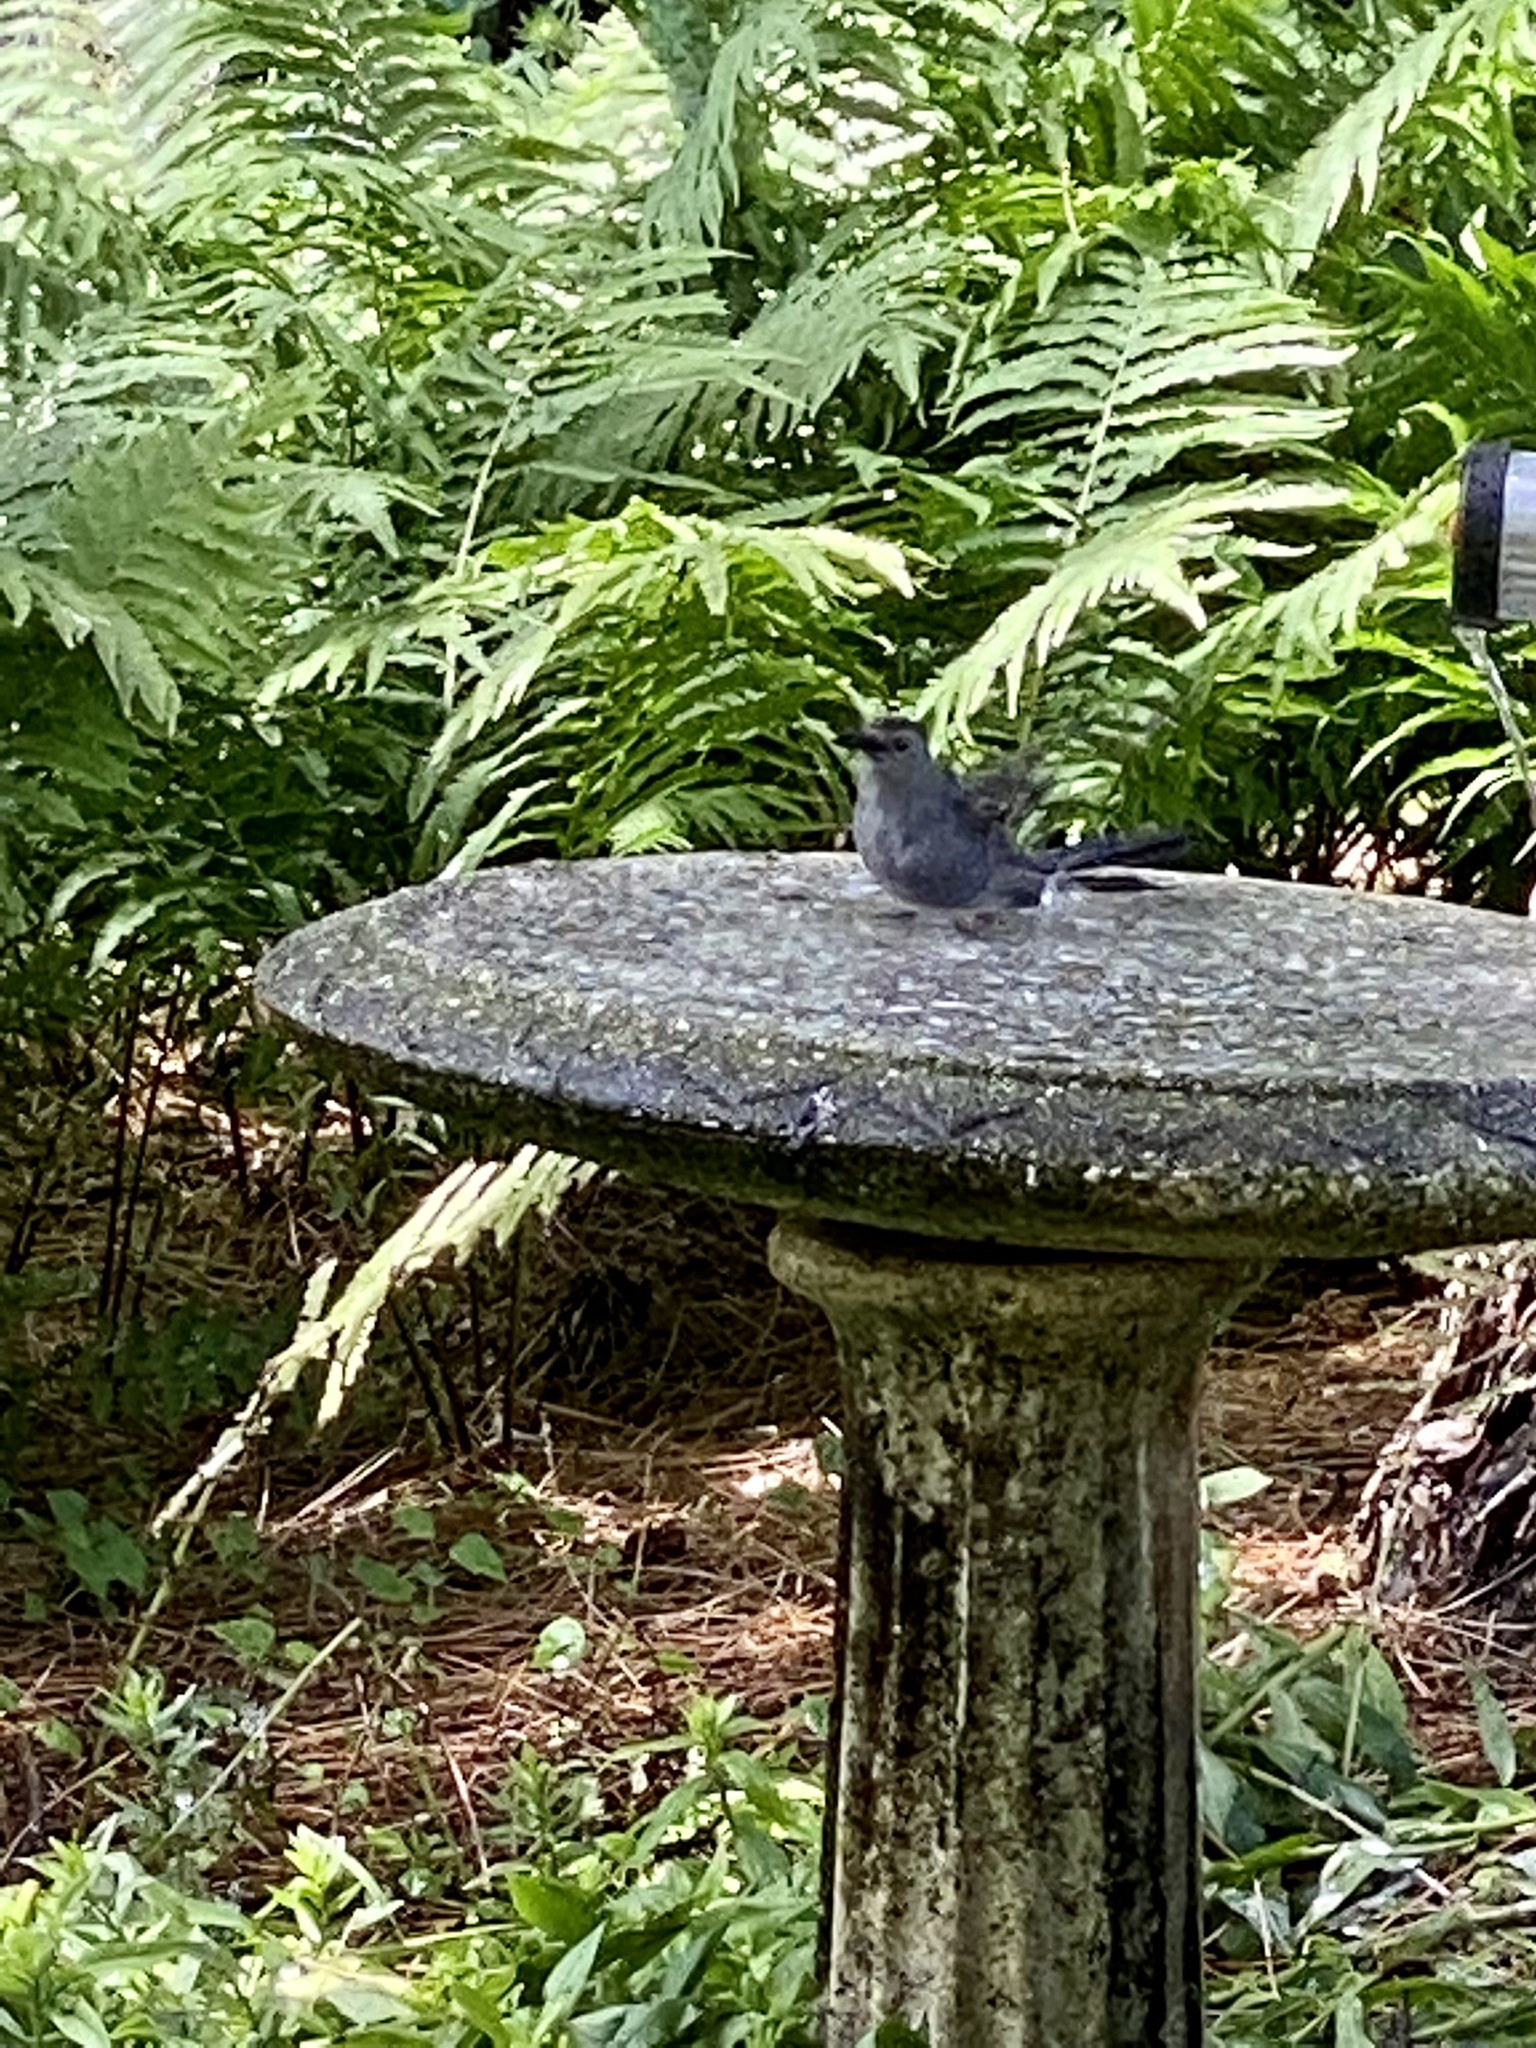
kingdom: Animalia
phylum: Chordata
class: Aves
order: Passeriformes
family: Mimidae
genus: Dumetella
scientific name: Dumetella carolinensis
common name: Gray catbird
